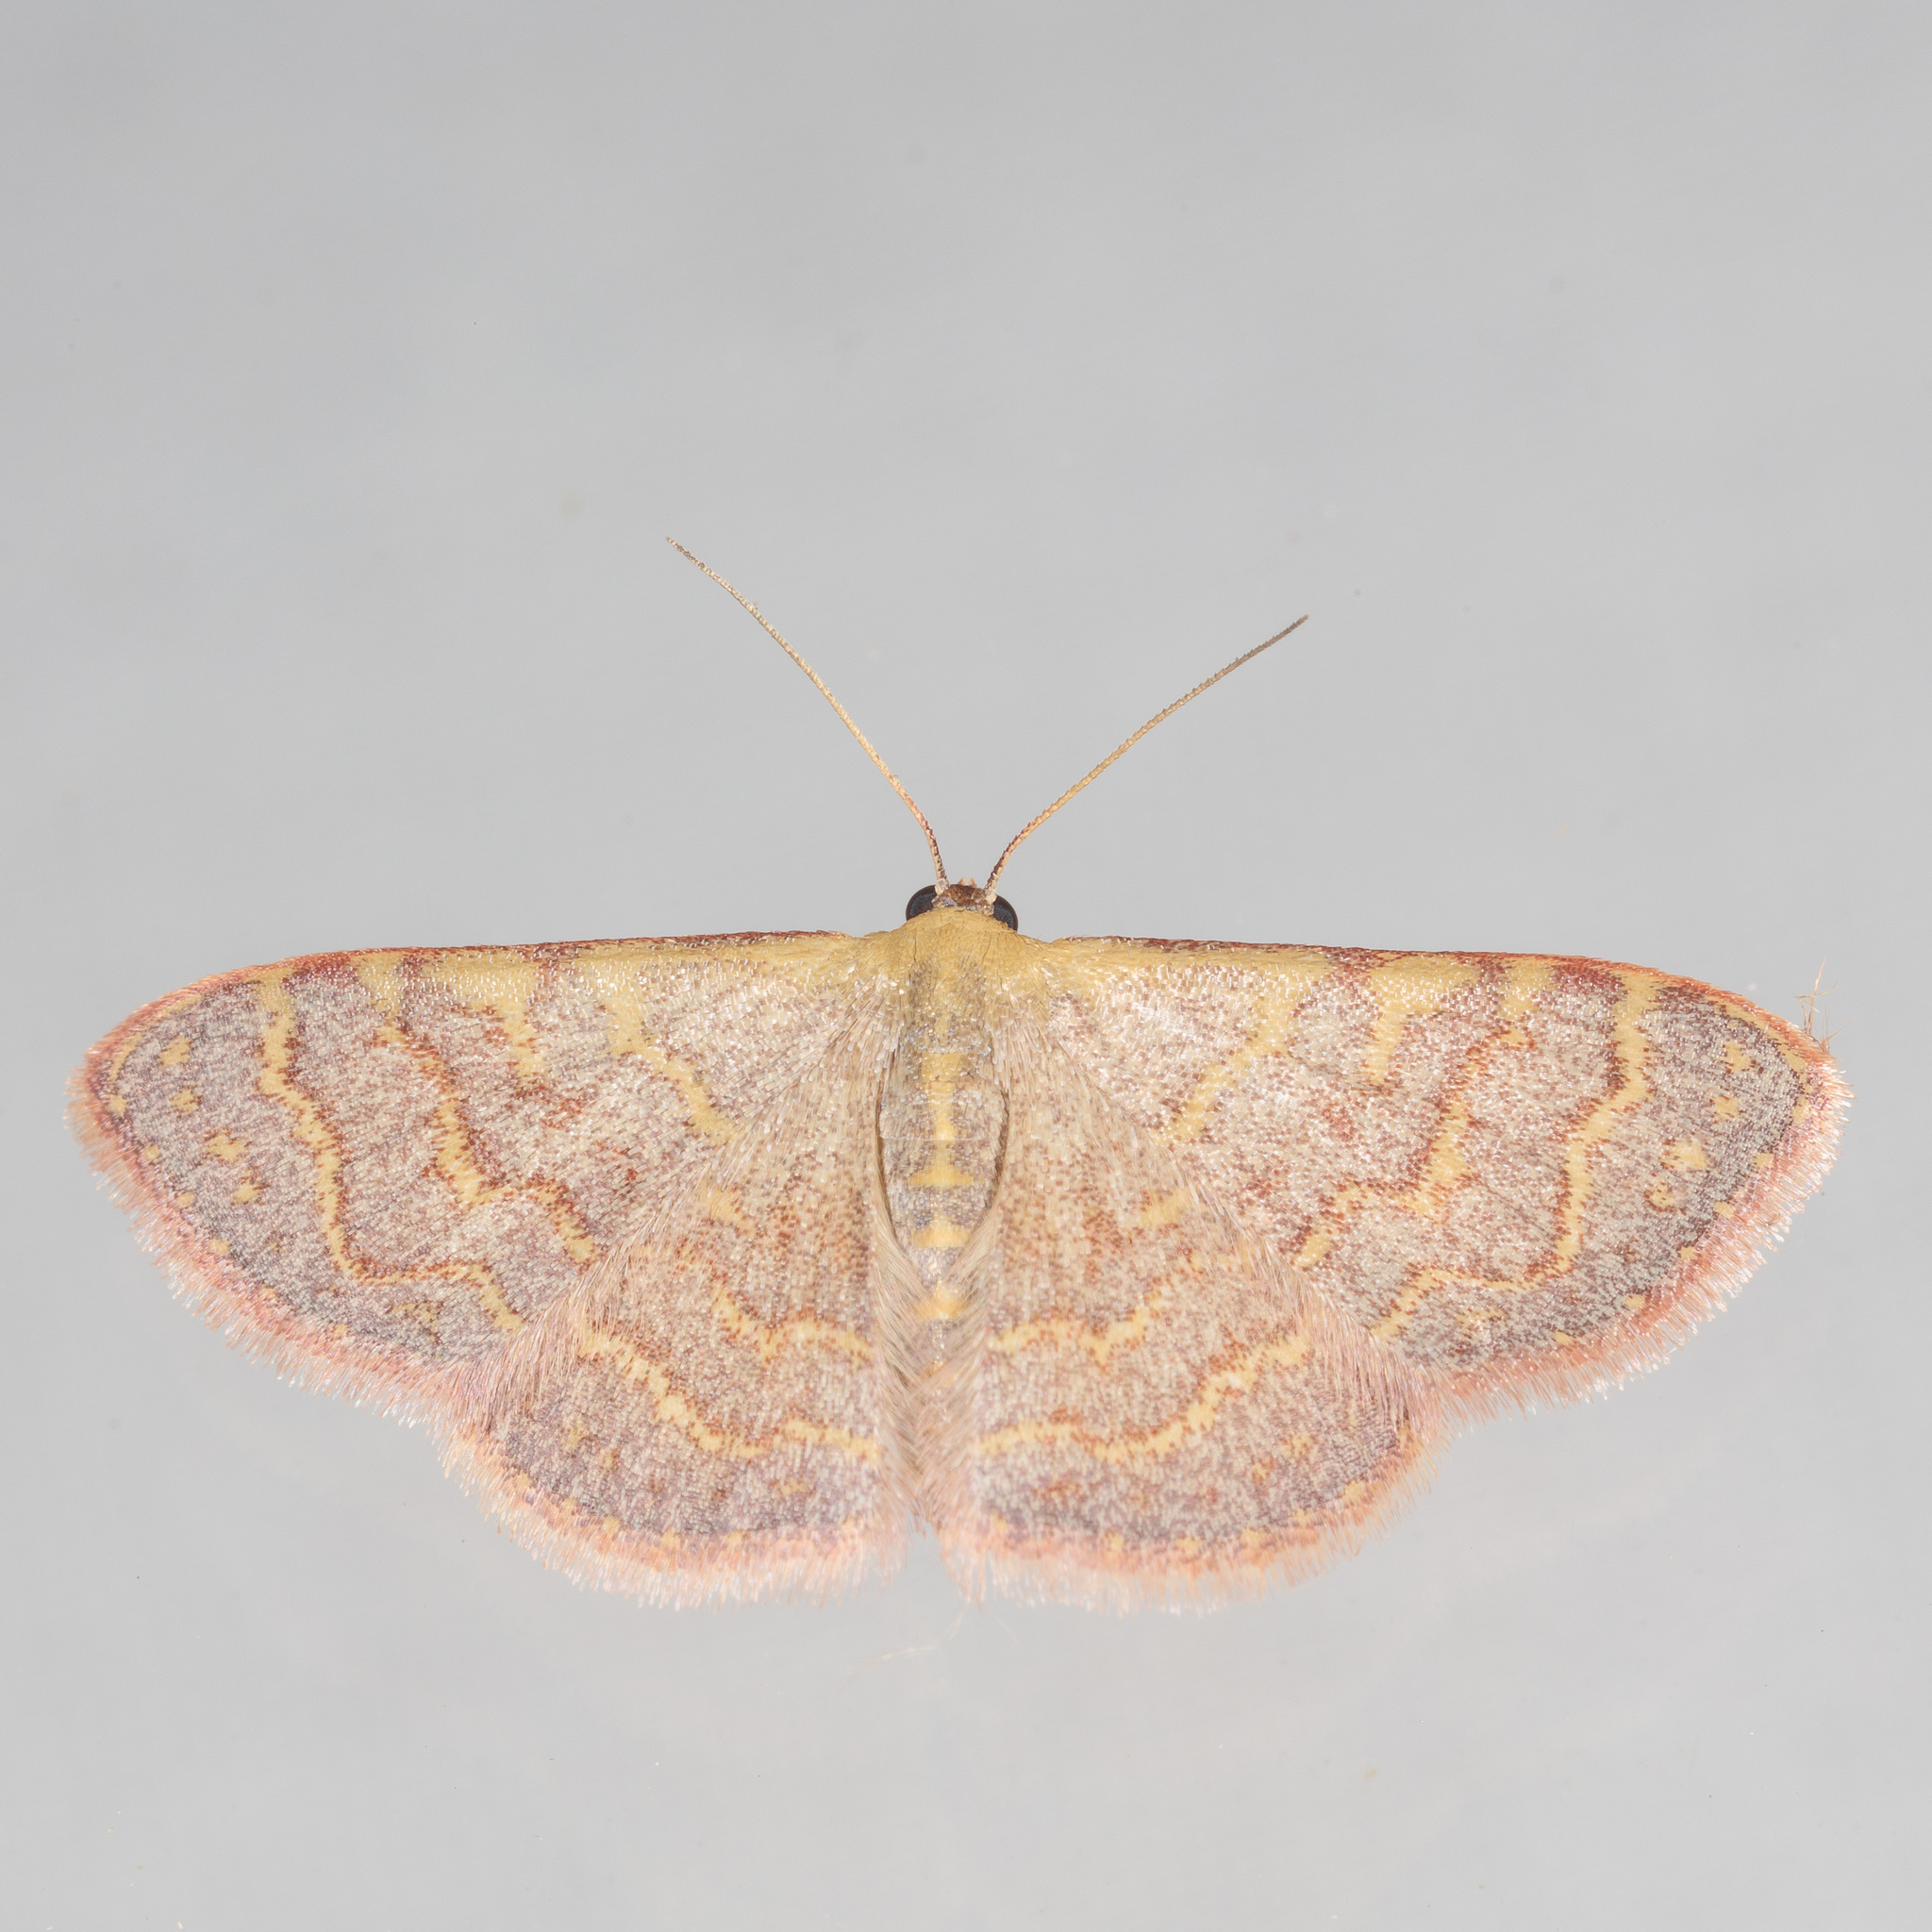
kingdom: Animalia
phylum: Arthropoda
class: Insecta
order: Lepidoptera
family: Geometridae
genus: Leptostales
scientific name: Leptostales pannaria
